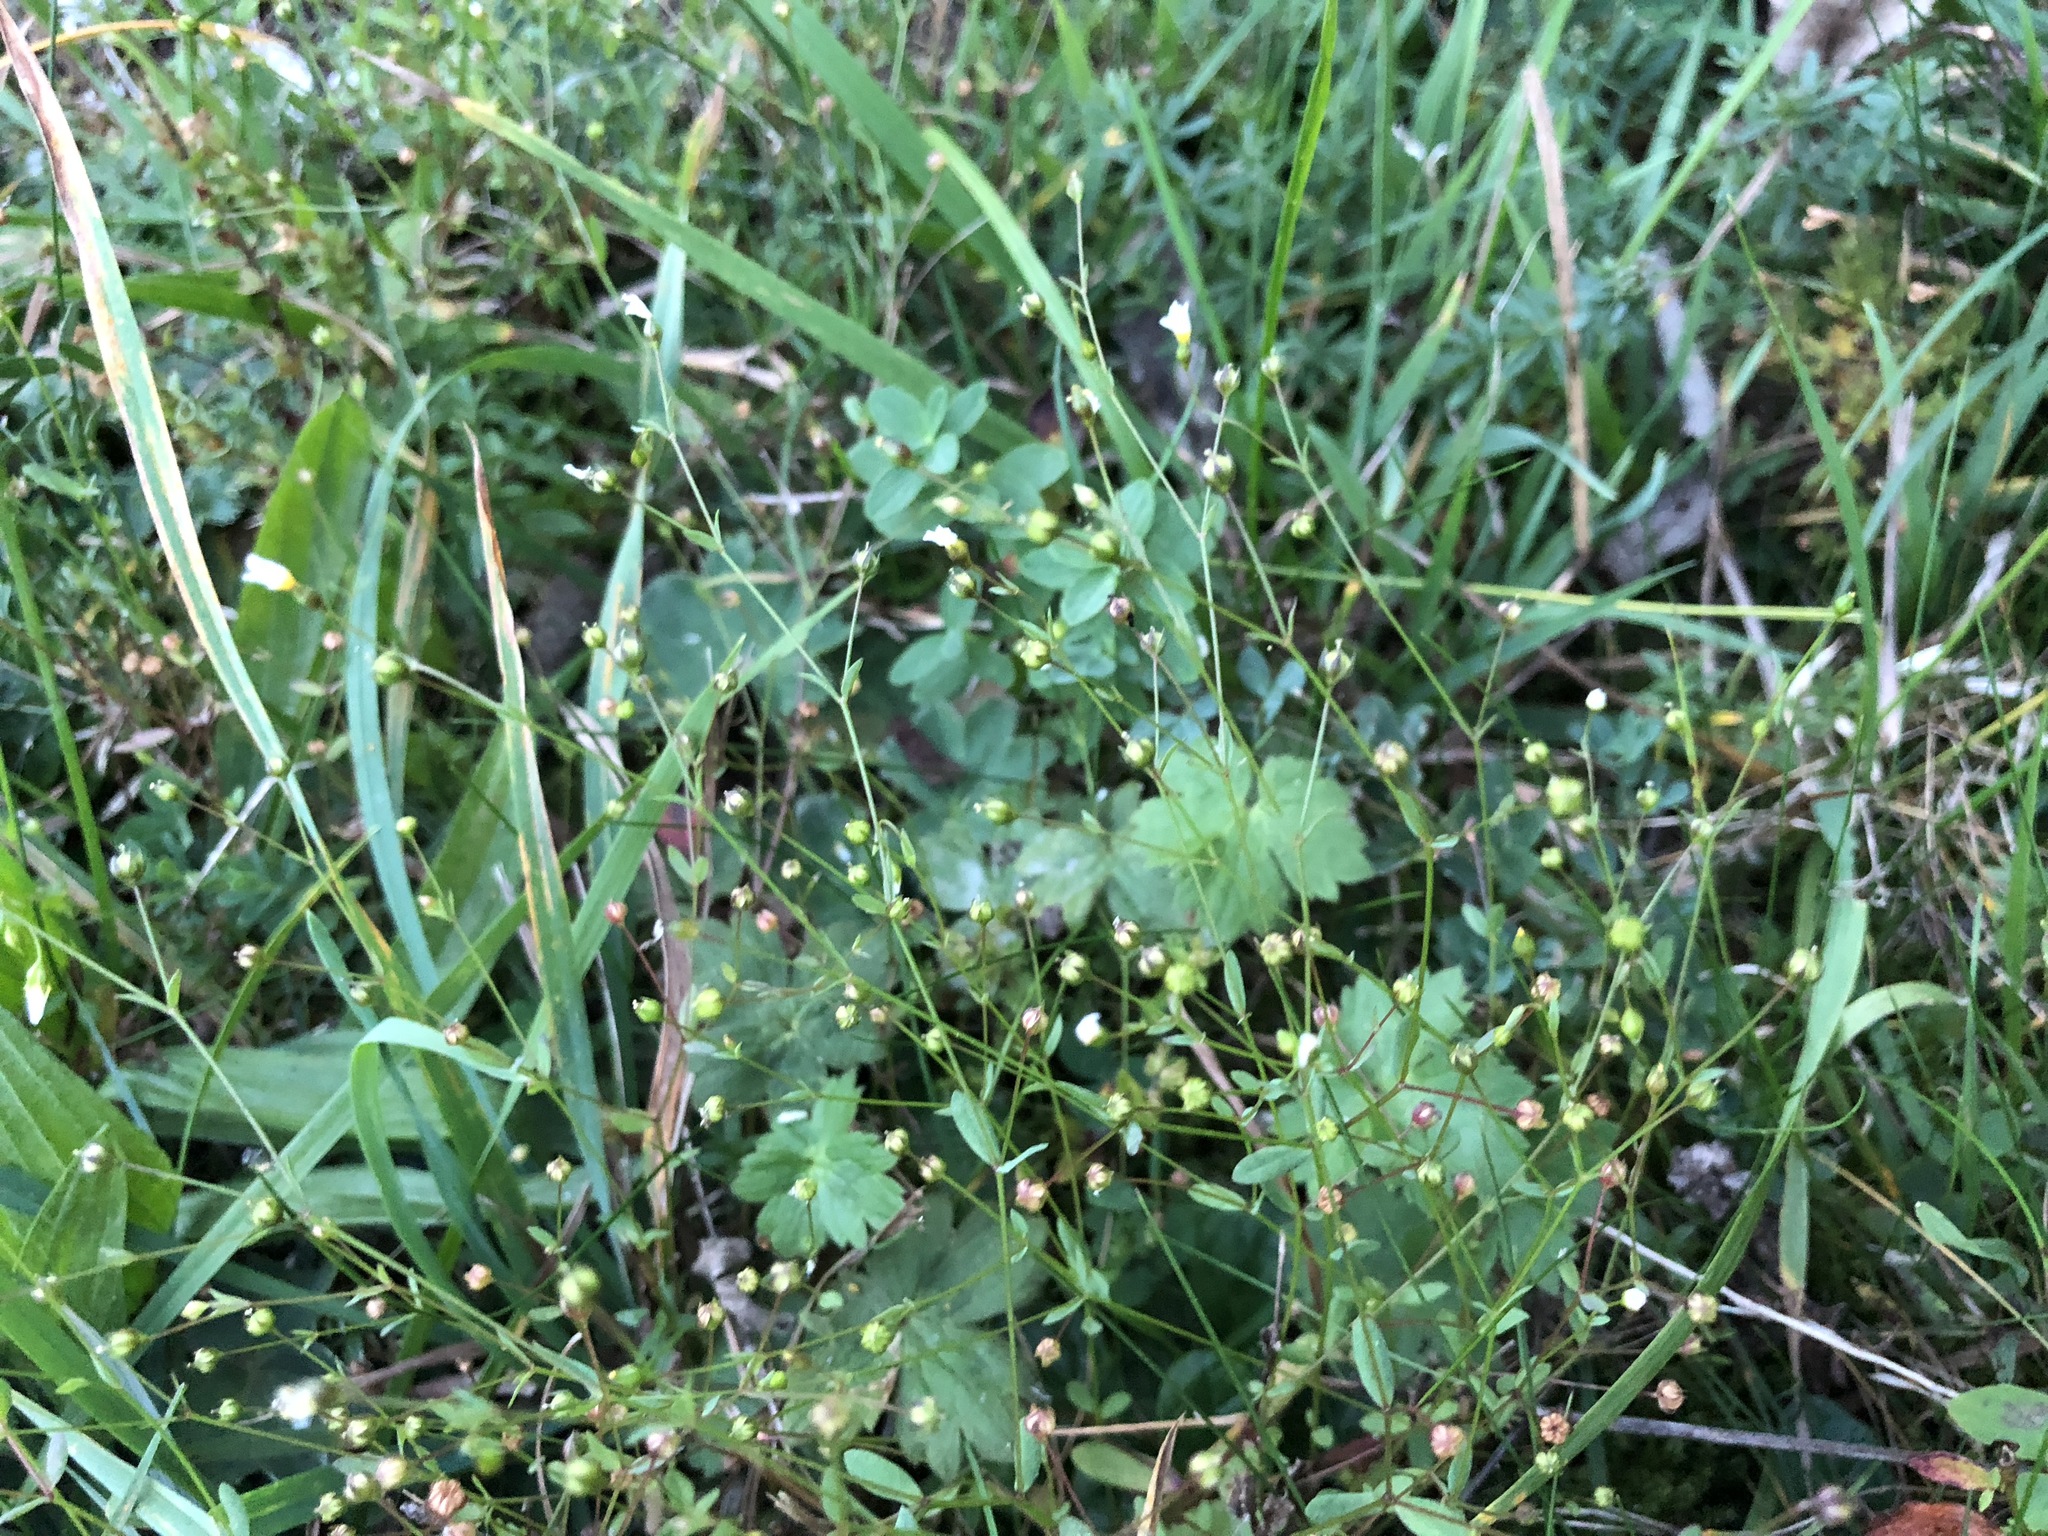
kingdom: Plantae
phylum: Tracheophyta
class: Magnoliopsida
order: Malpighiales
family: Linaceae
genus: Linum
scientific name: Linum catharticum
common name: Fairy flax
